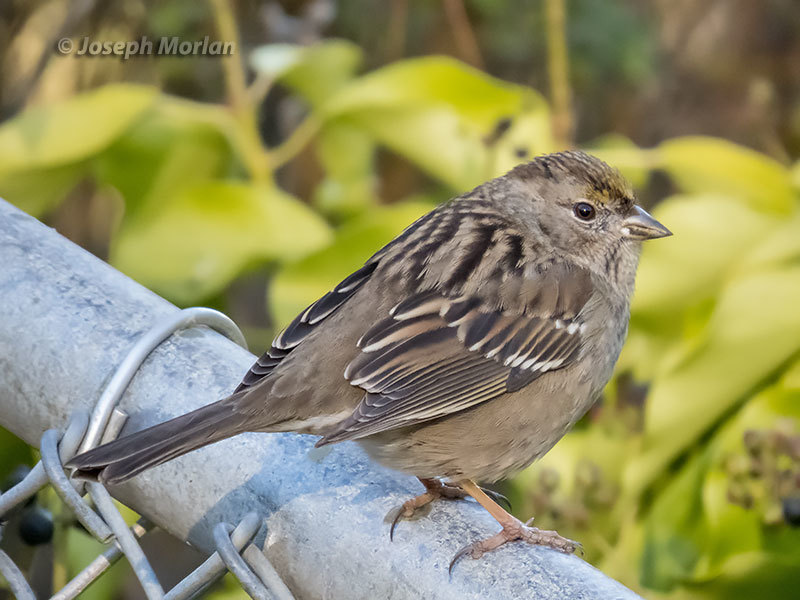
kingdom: Animalia
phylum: Chordata
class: Aves
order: Passeriformes
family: Passerellidae
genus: Zonotrichia
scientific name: Zonotrichia atricapilla
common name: Golden-crowned sparrow
